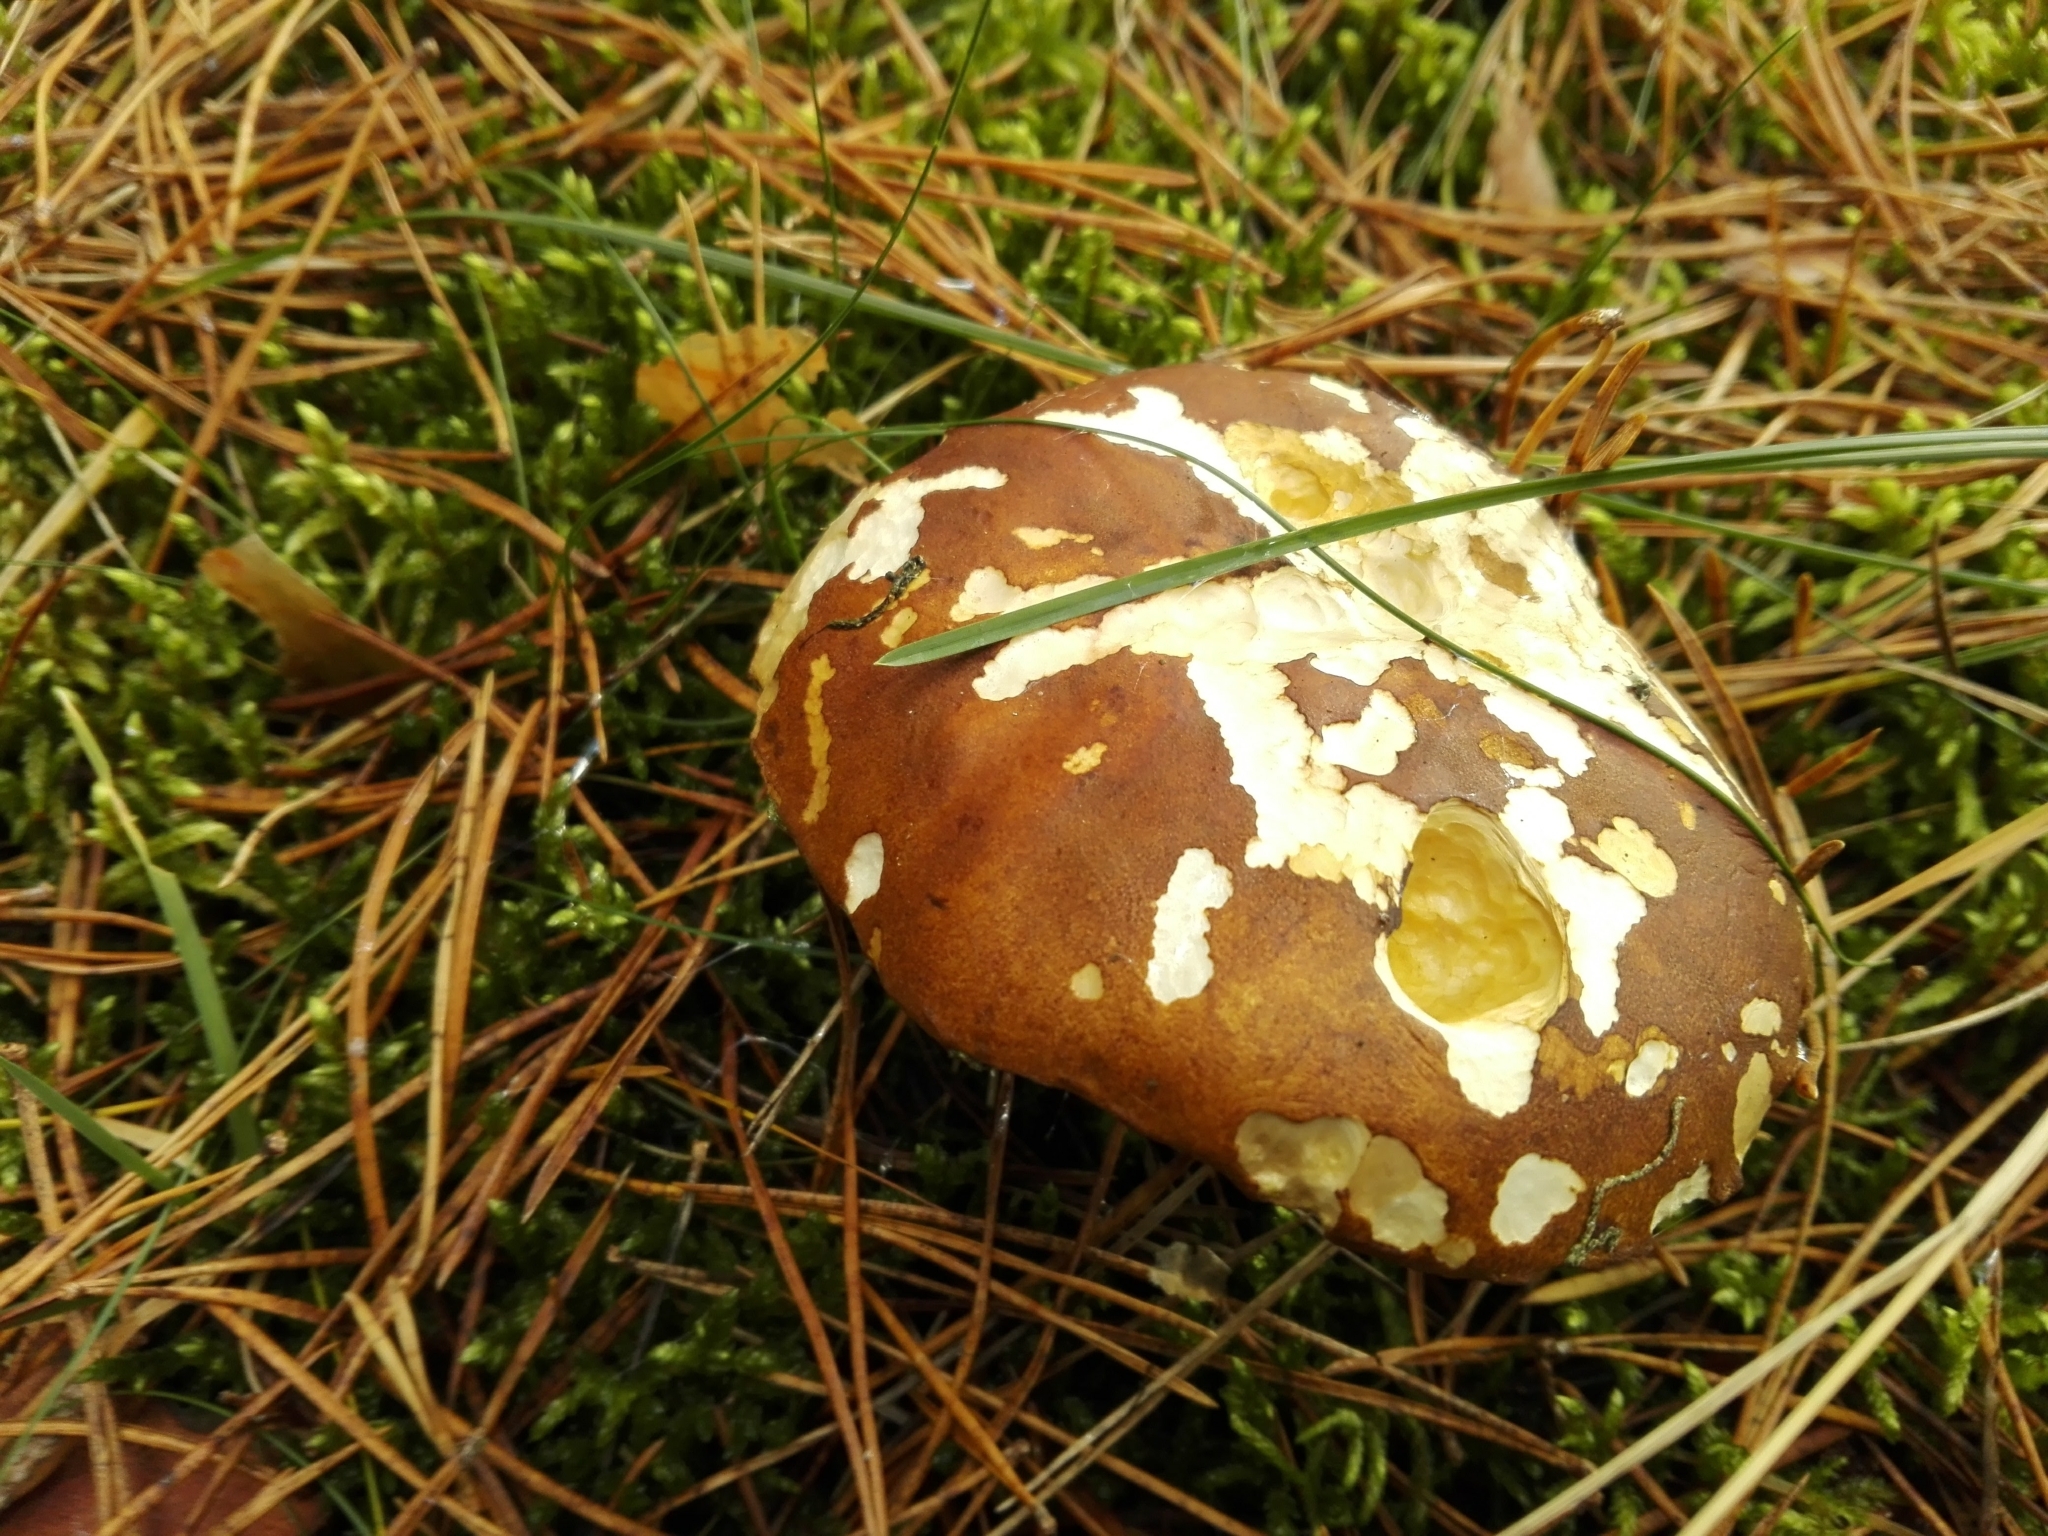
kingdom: Fungi
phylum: Basidiomycota
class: Agaricomycetes
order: Boletales
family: Boletaceae
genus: Imleria
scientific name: Imleria badia
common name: Bay bolete
